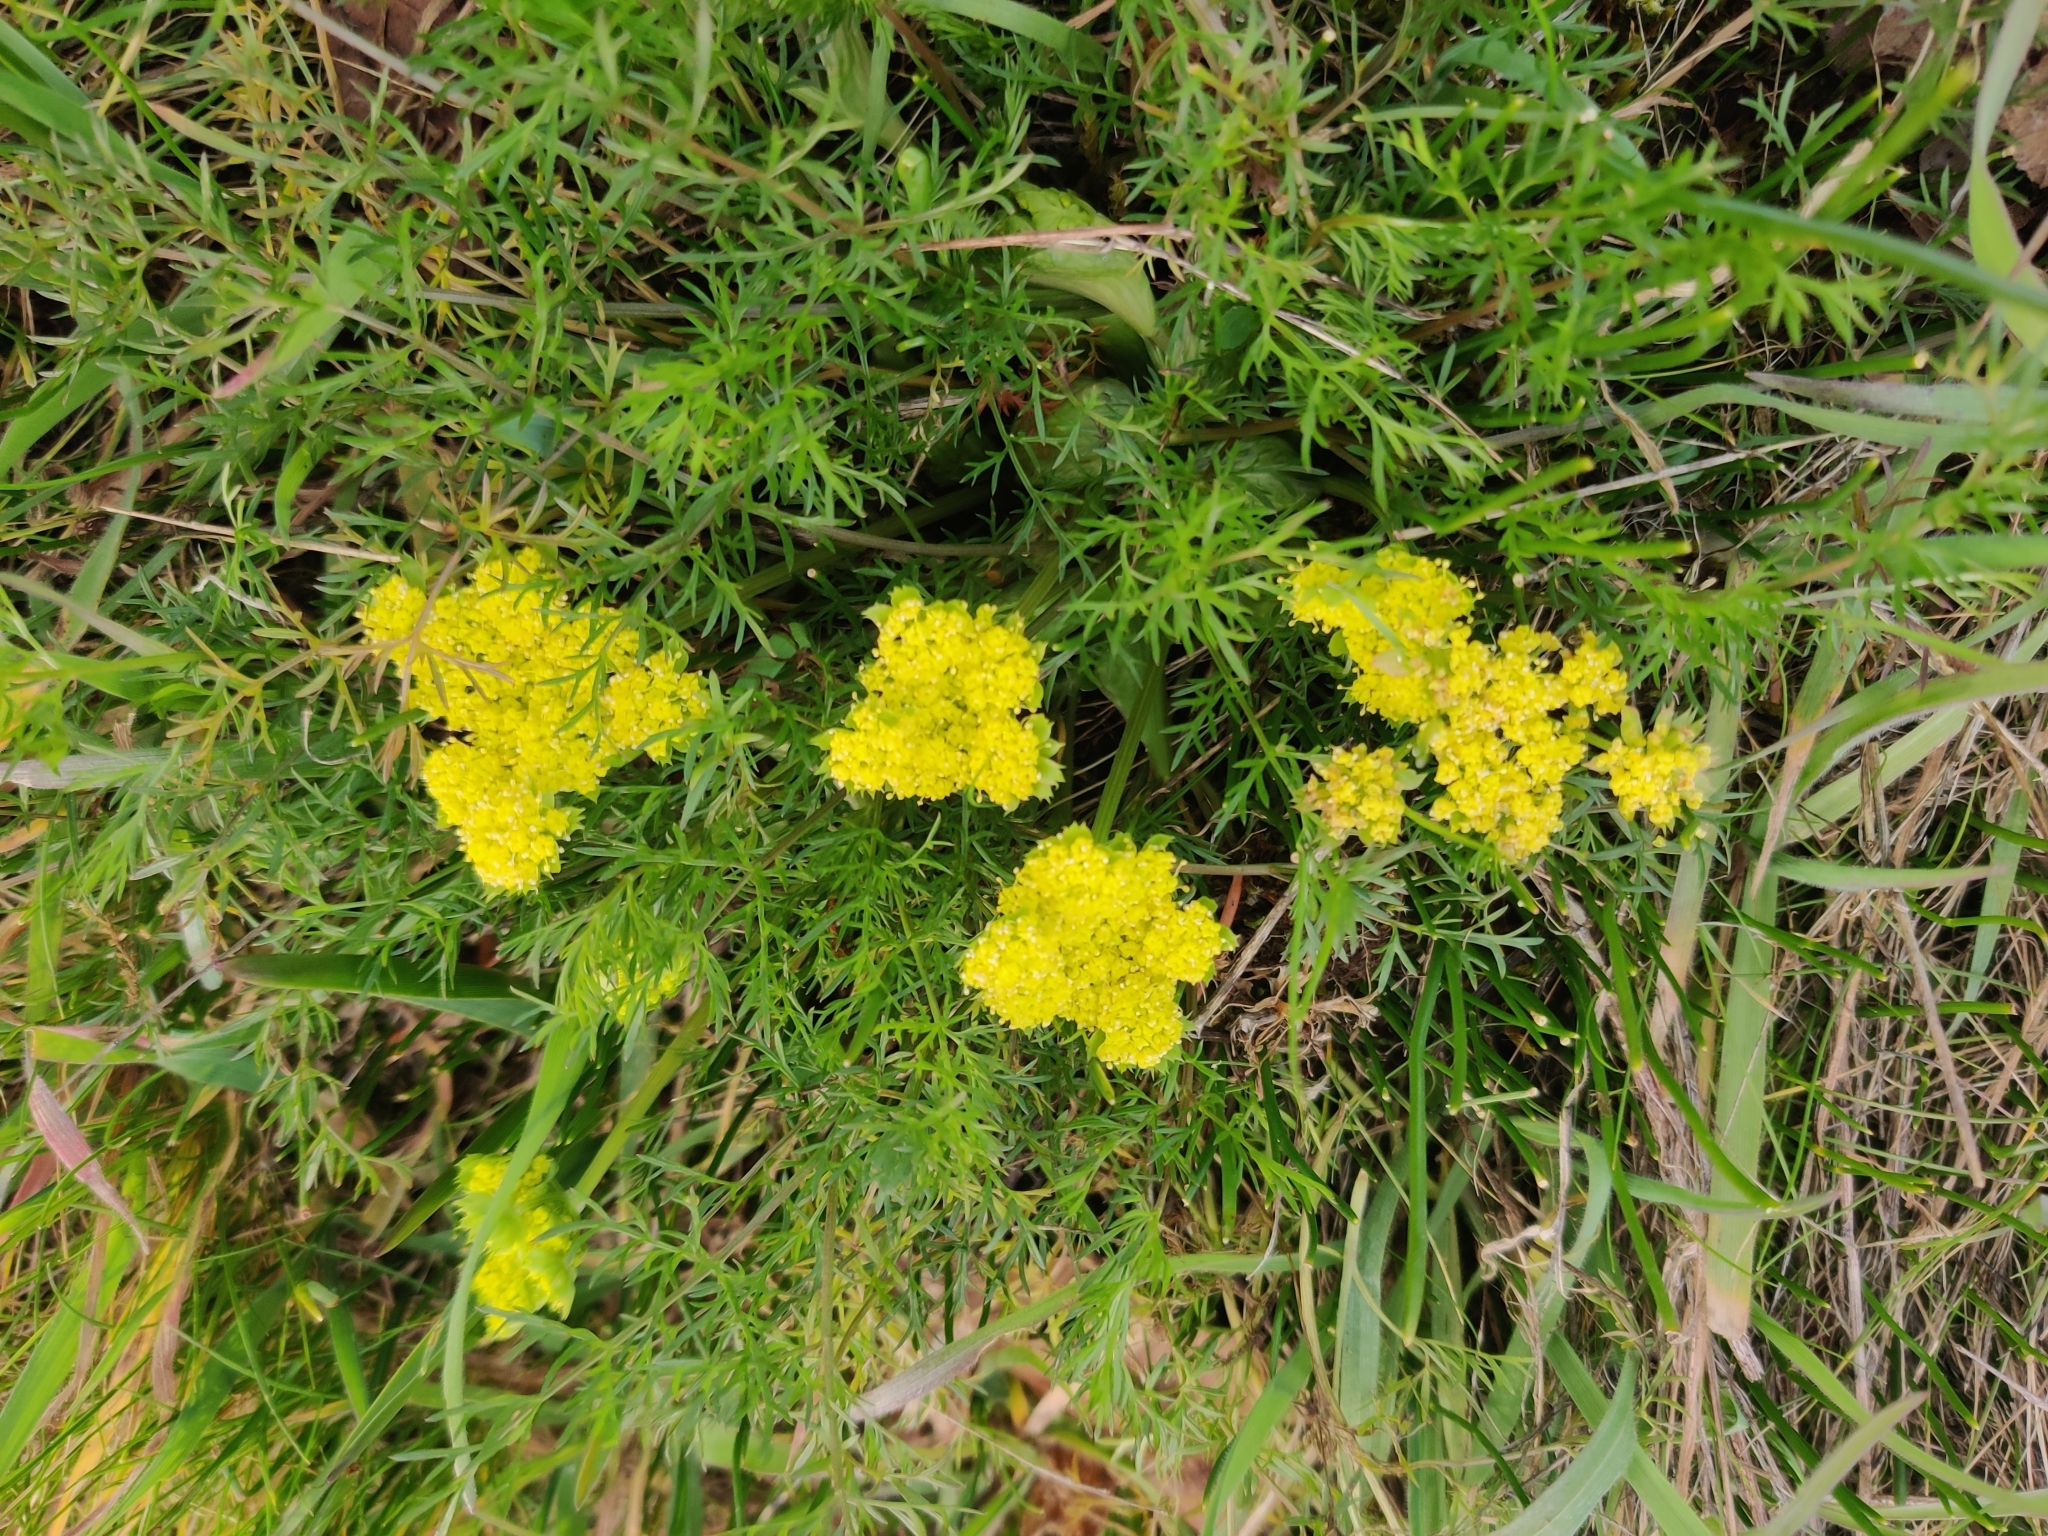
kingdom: Plantae
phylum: Tracheophyta
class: Magnoliopsida
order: Apiales
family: Apiaceae
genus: Lomatium
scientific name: Lomatium utriculatum
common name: Fine-leaf desert-parsley
